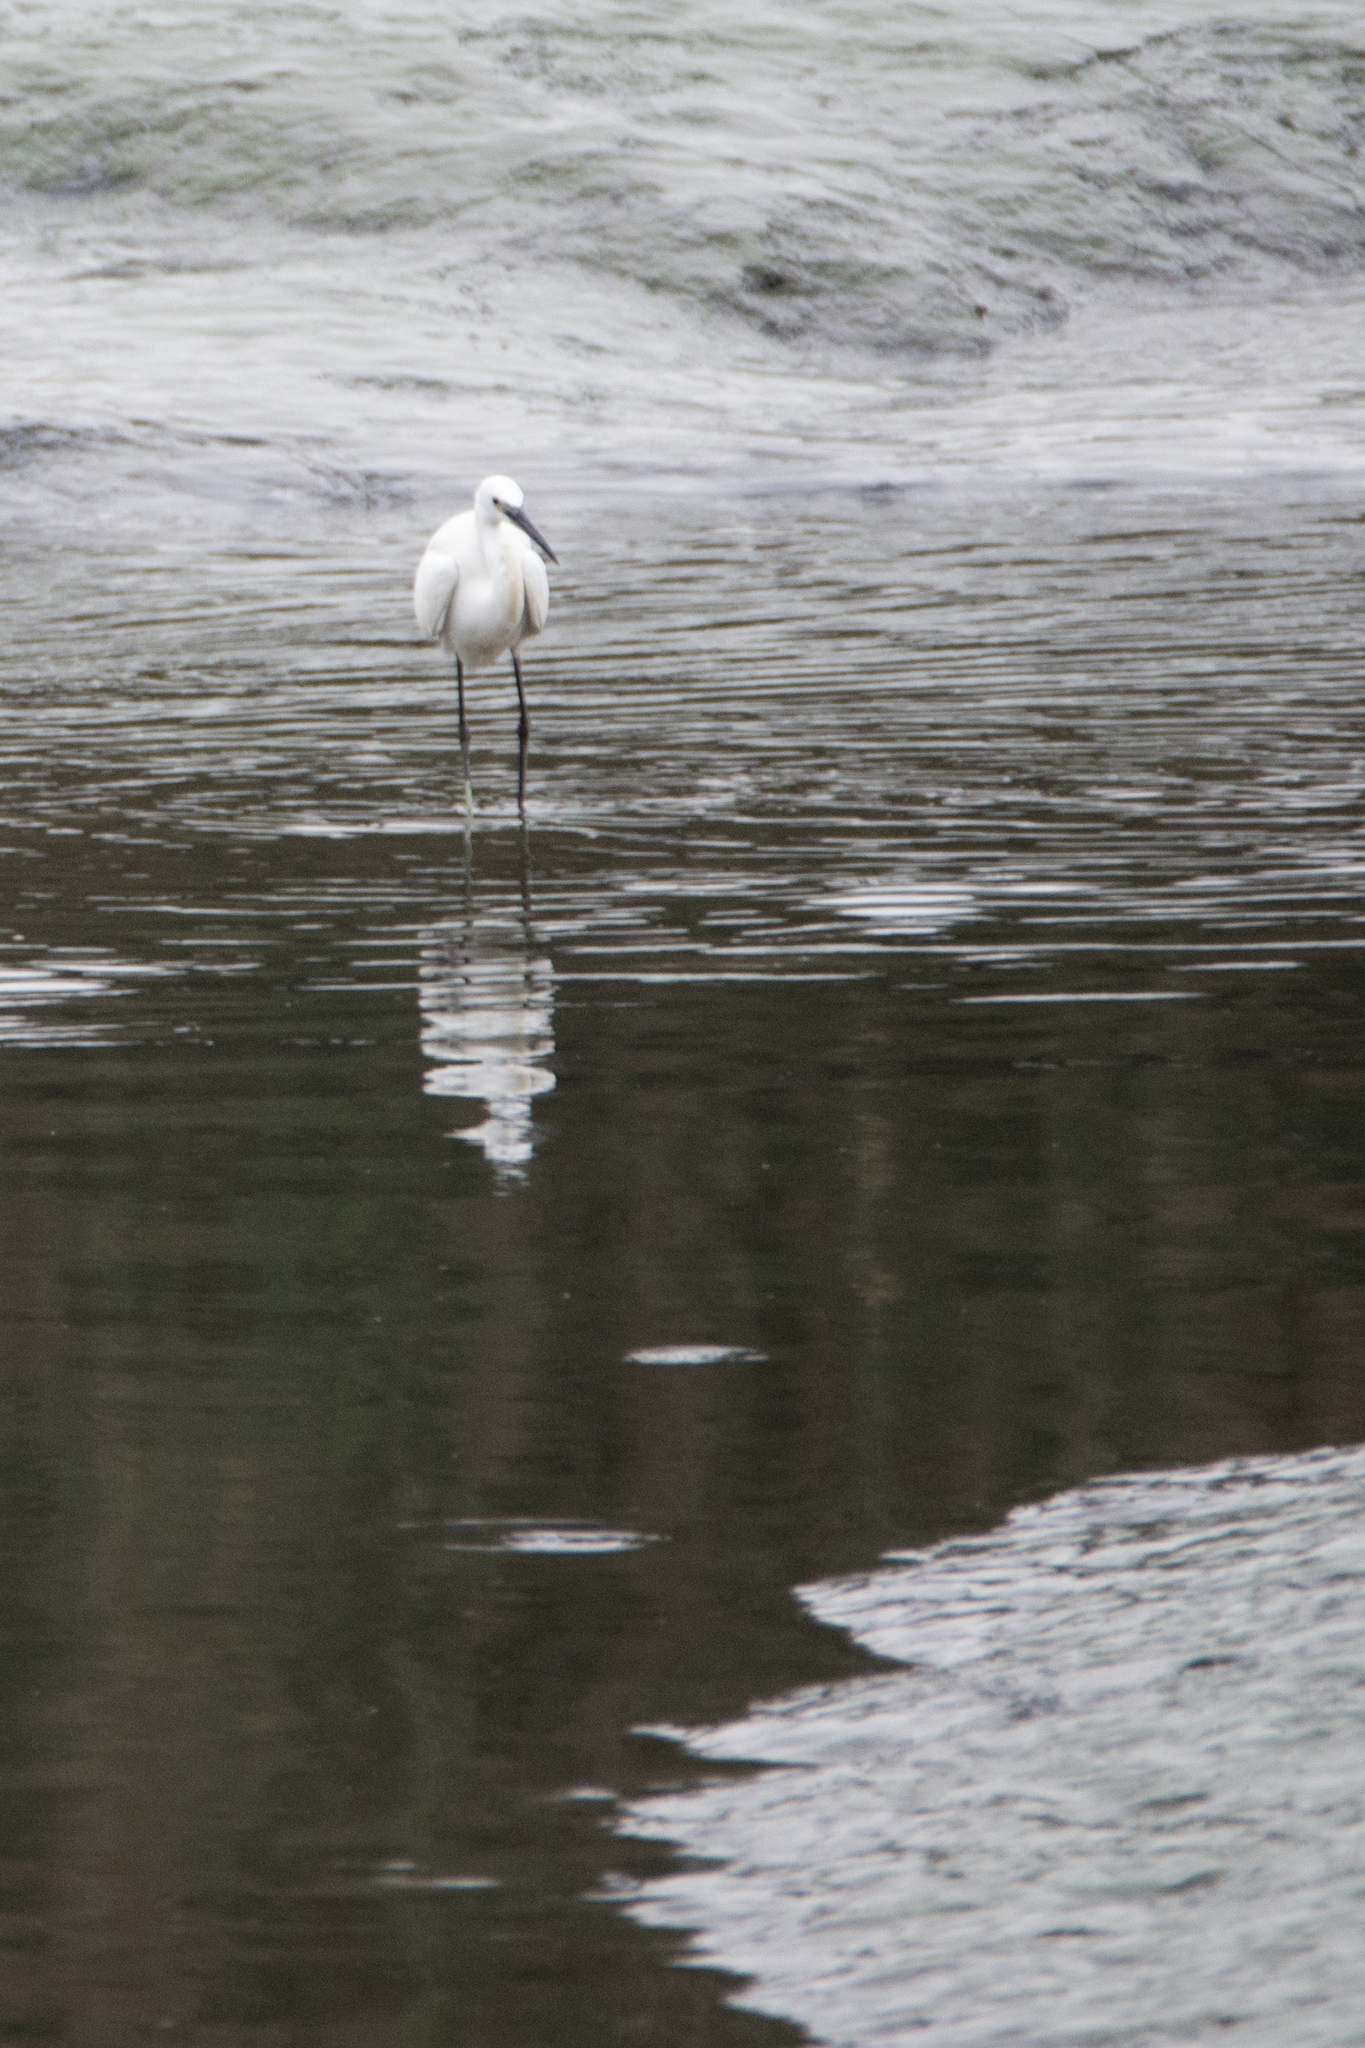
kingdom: Animalia
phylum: Chordata
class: Aves
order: Pelecaniformes
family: Ardeidae
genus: Egretta
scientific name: Egretta garzetta
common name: Little egret
